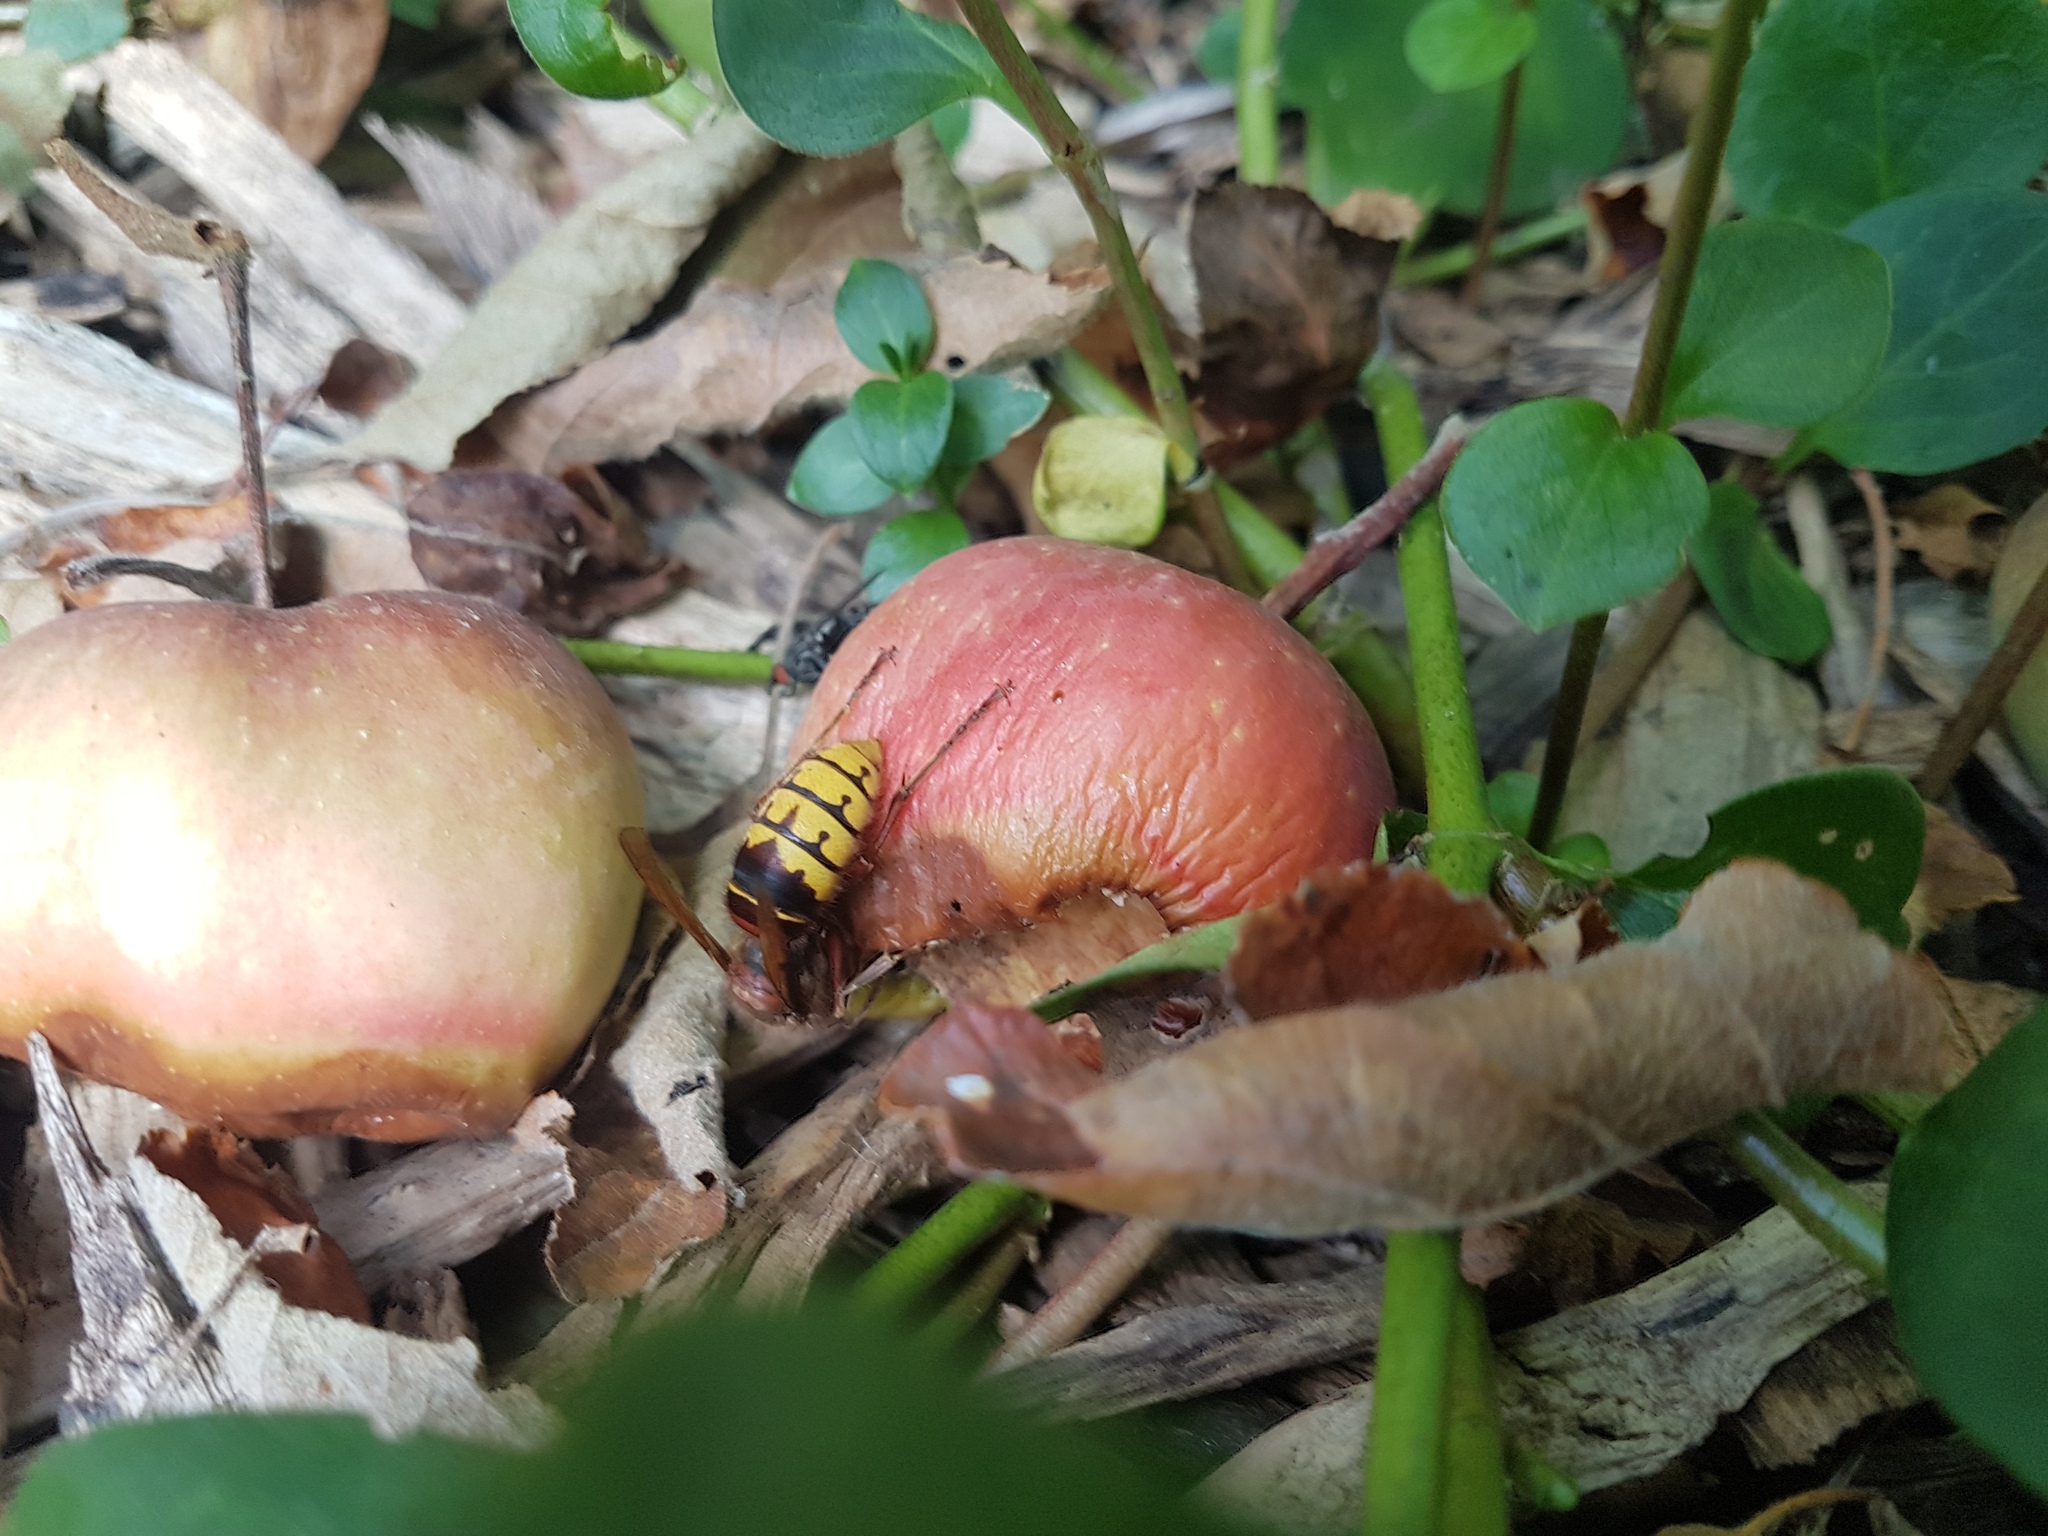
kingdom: Animalia
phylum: Arthropoda
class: Insecta
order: Hymenoptera
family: Vespidae
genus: Vespa
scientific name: Vespa crabro
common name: Hornet
